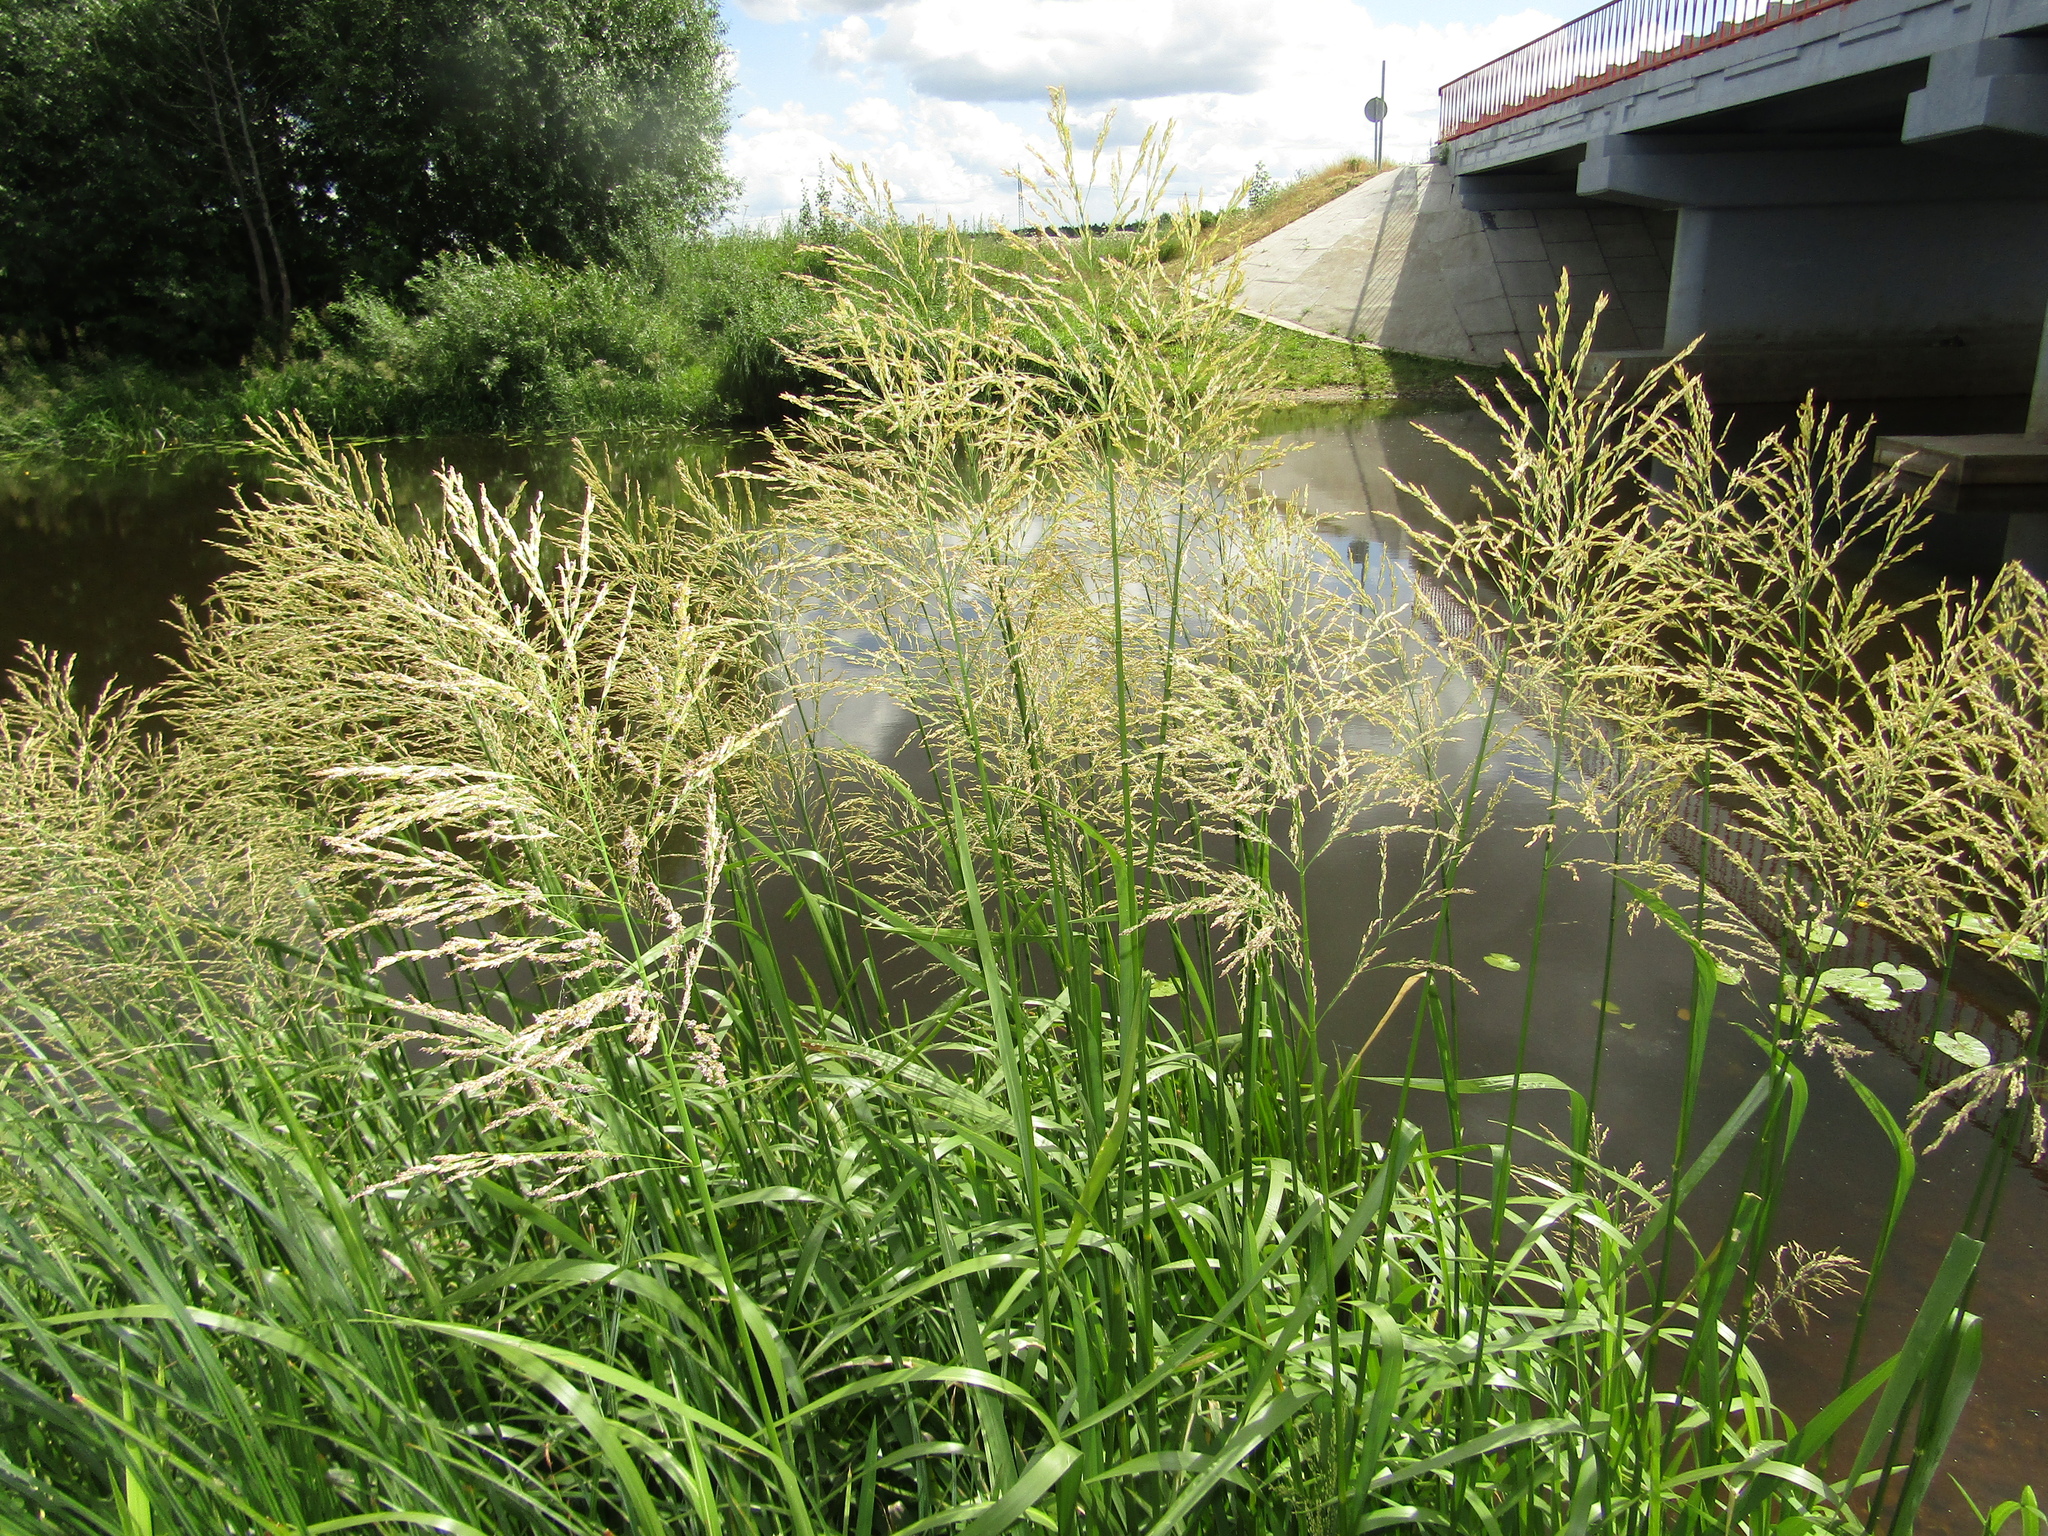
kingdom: Plantae
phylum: Tracheophyta
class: Liliopsida
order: Poales
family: Poaceae
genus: Glyceria
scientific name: Glyceria maxima
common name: Reed mannagrass
